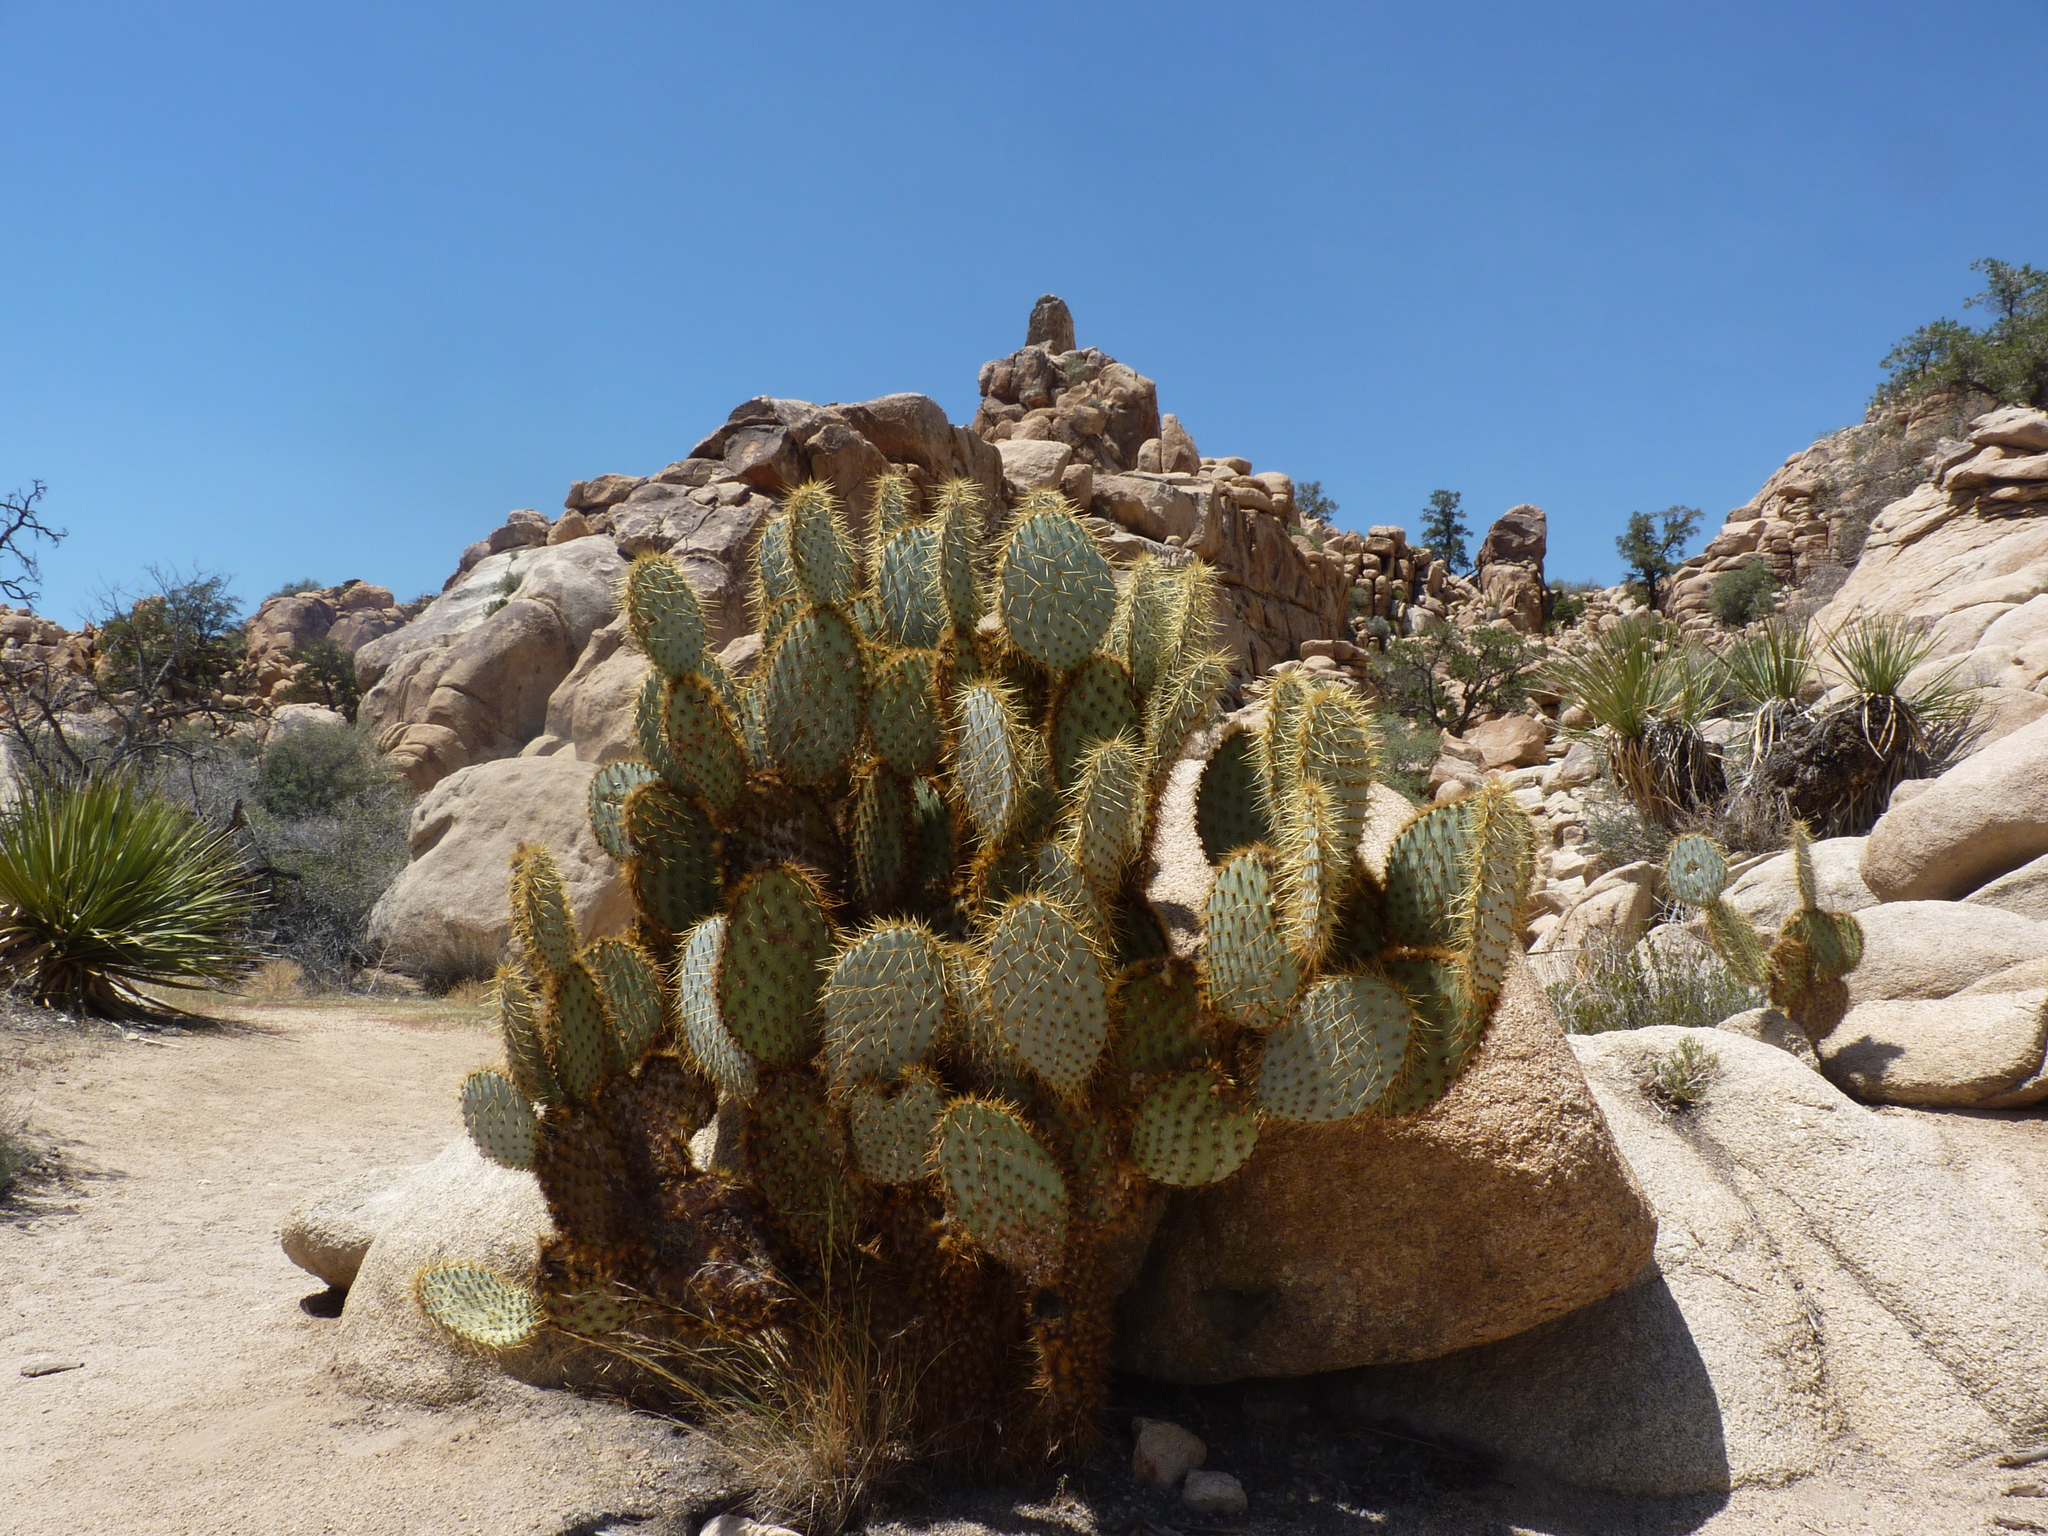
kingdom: Plantae
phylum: Tracheophyta
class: Magnoliopsida
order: Caryophyllales
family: Cactaceae
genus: Opuntia
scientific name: Opuntia chlorotica
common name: Dollar-joint prickly-pear
